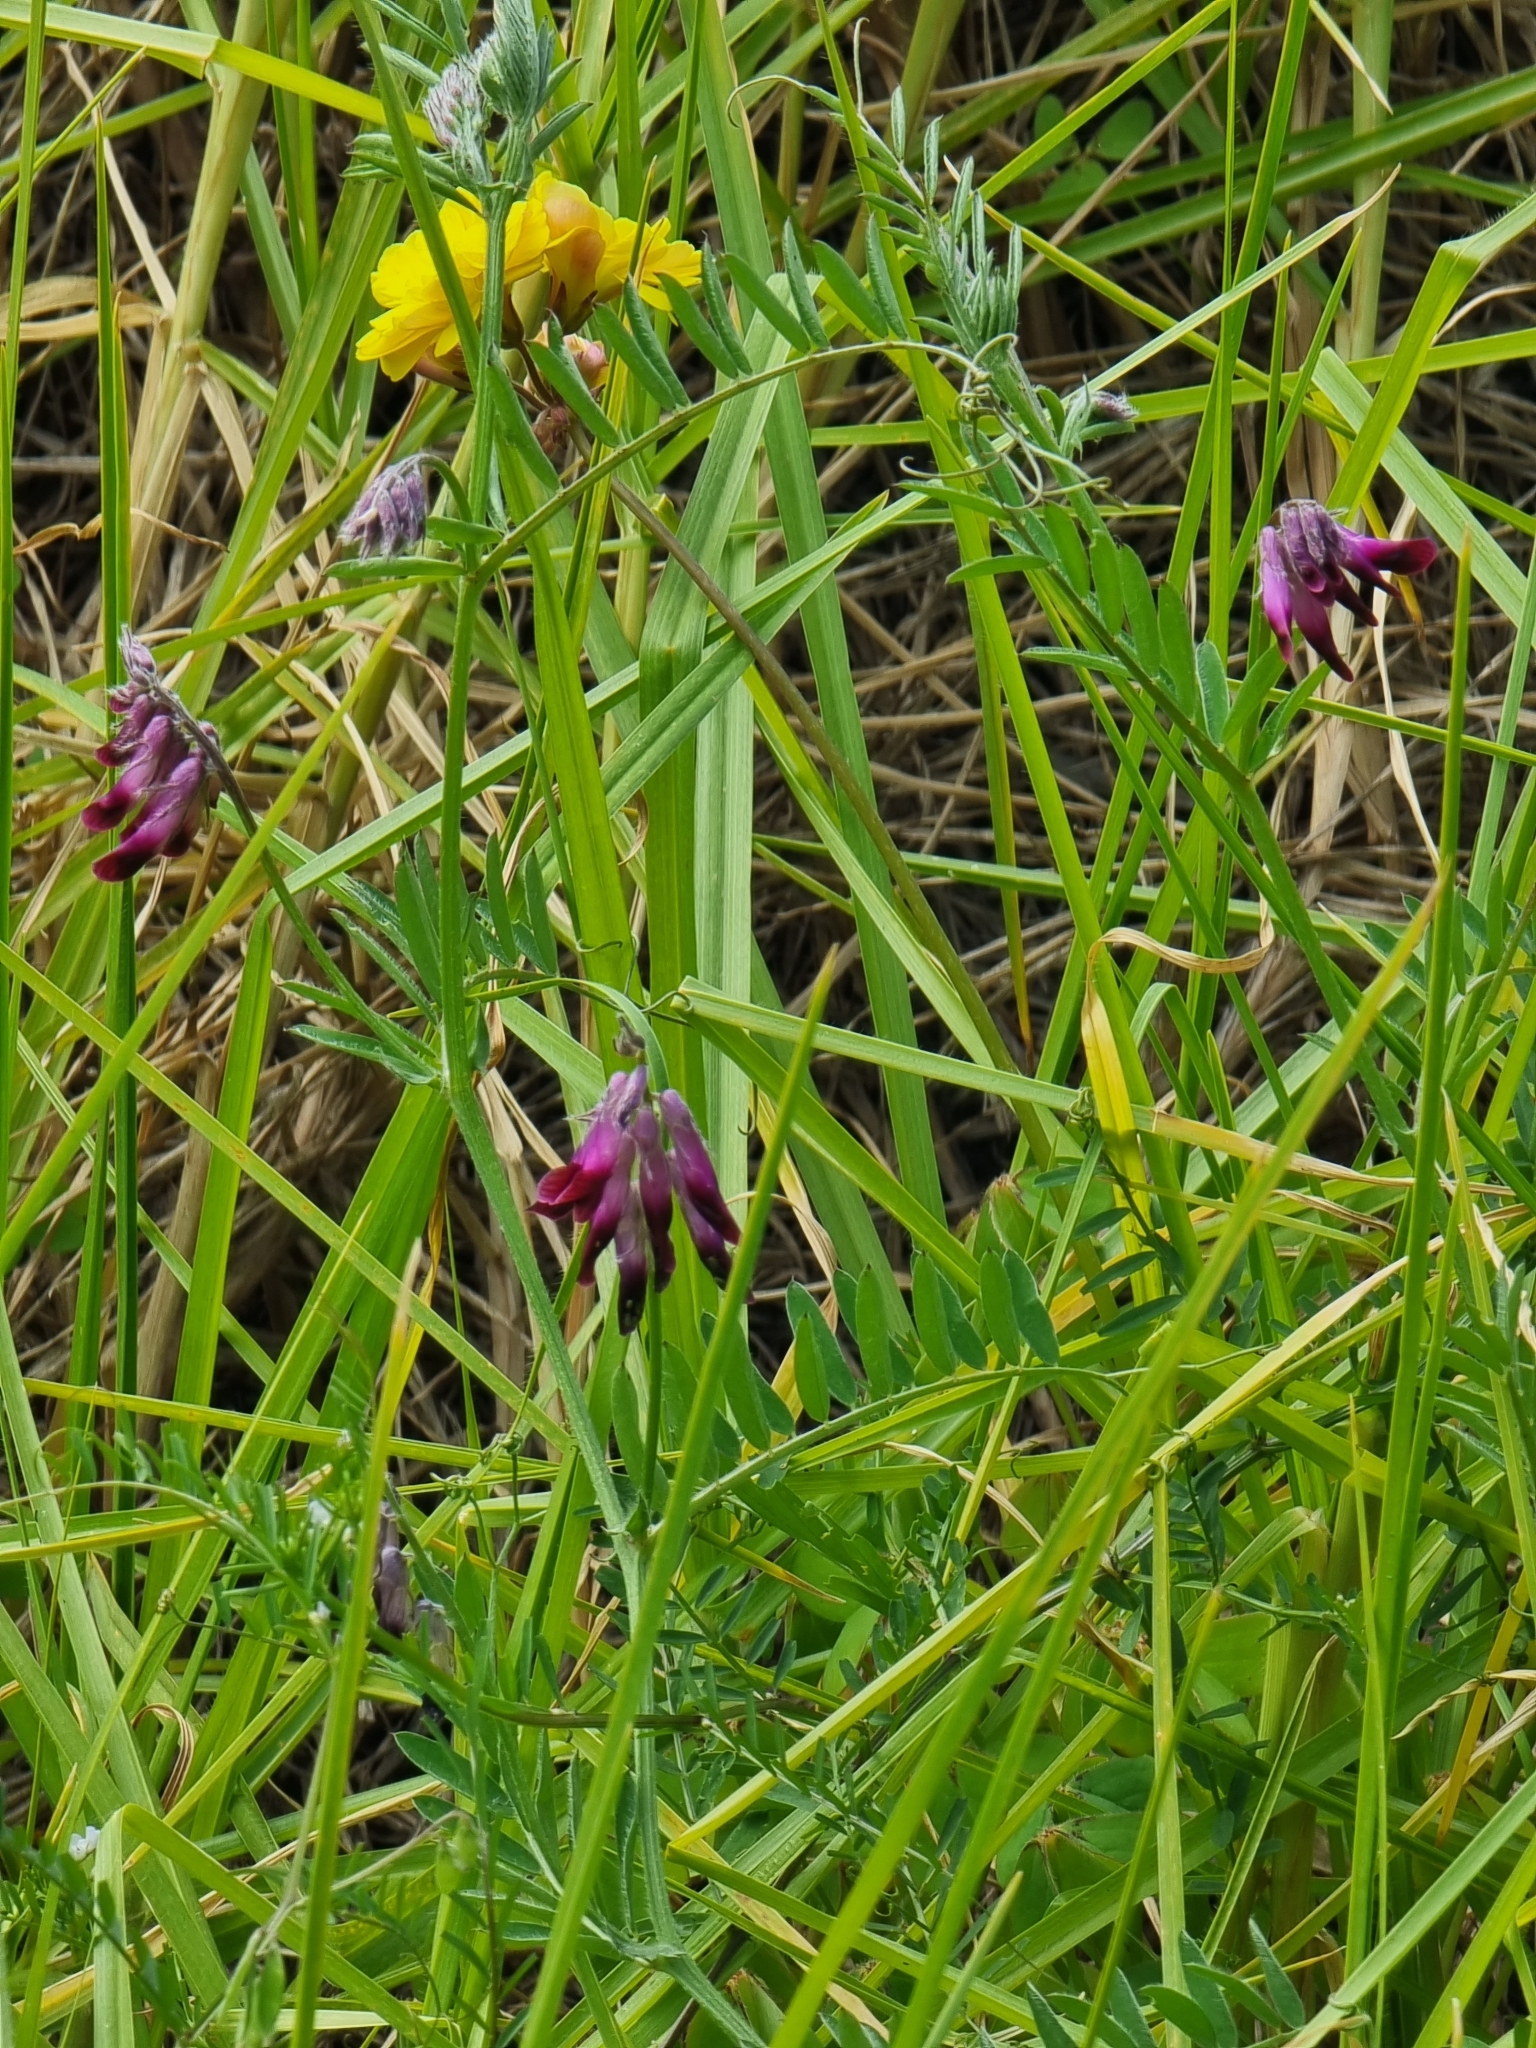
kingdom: Plantae
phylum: Tracheophyta
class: Magnoliopsida
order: Fabales
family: Fabaceae
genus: Vicia
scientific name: Vicia benghalensis
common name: Purple vetch
